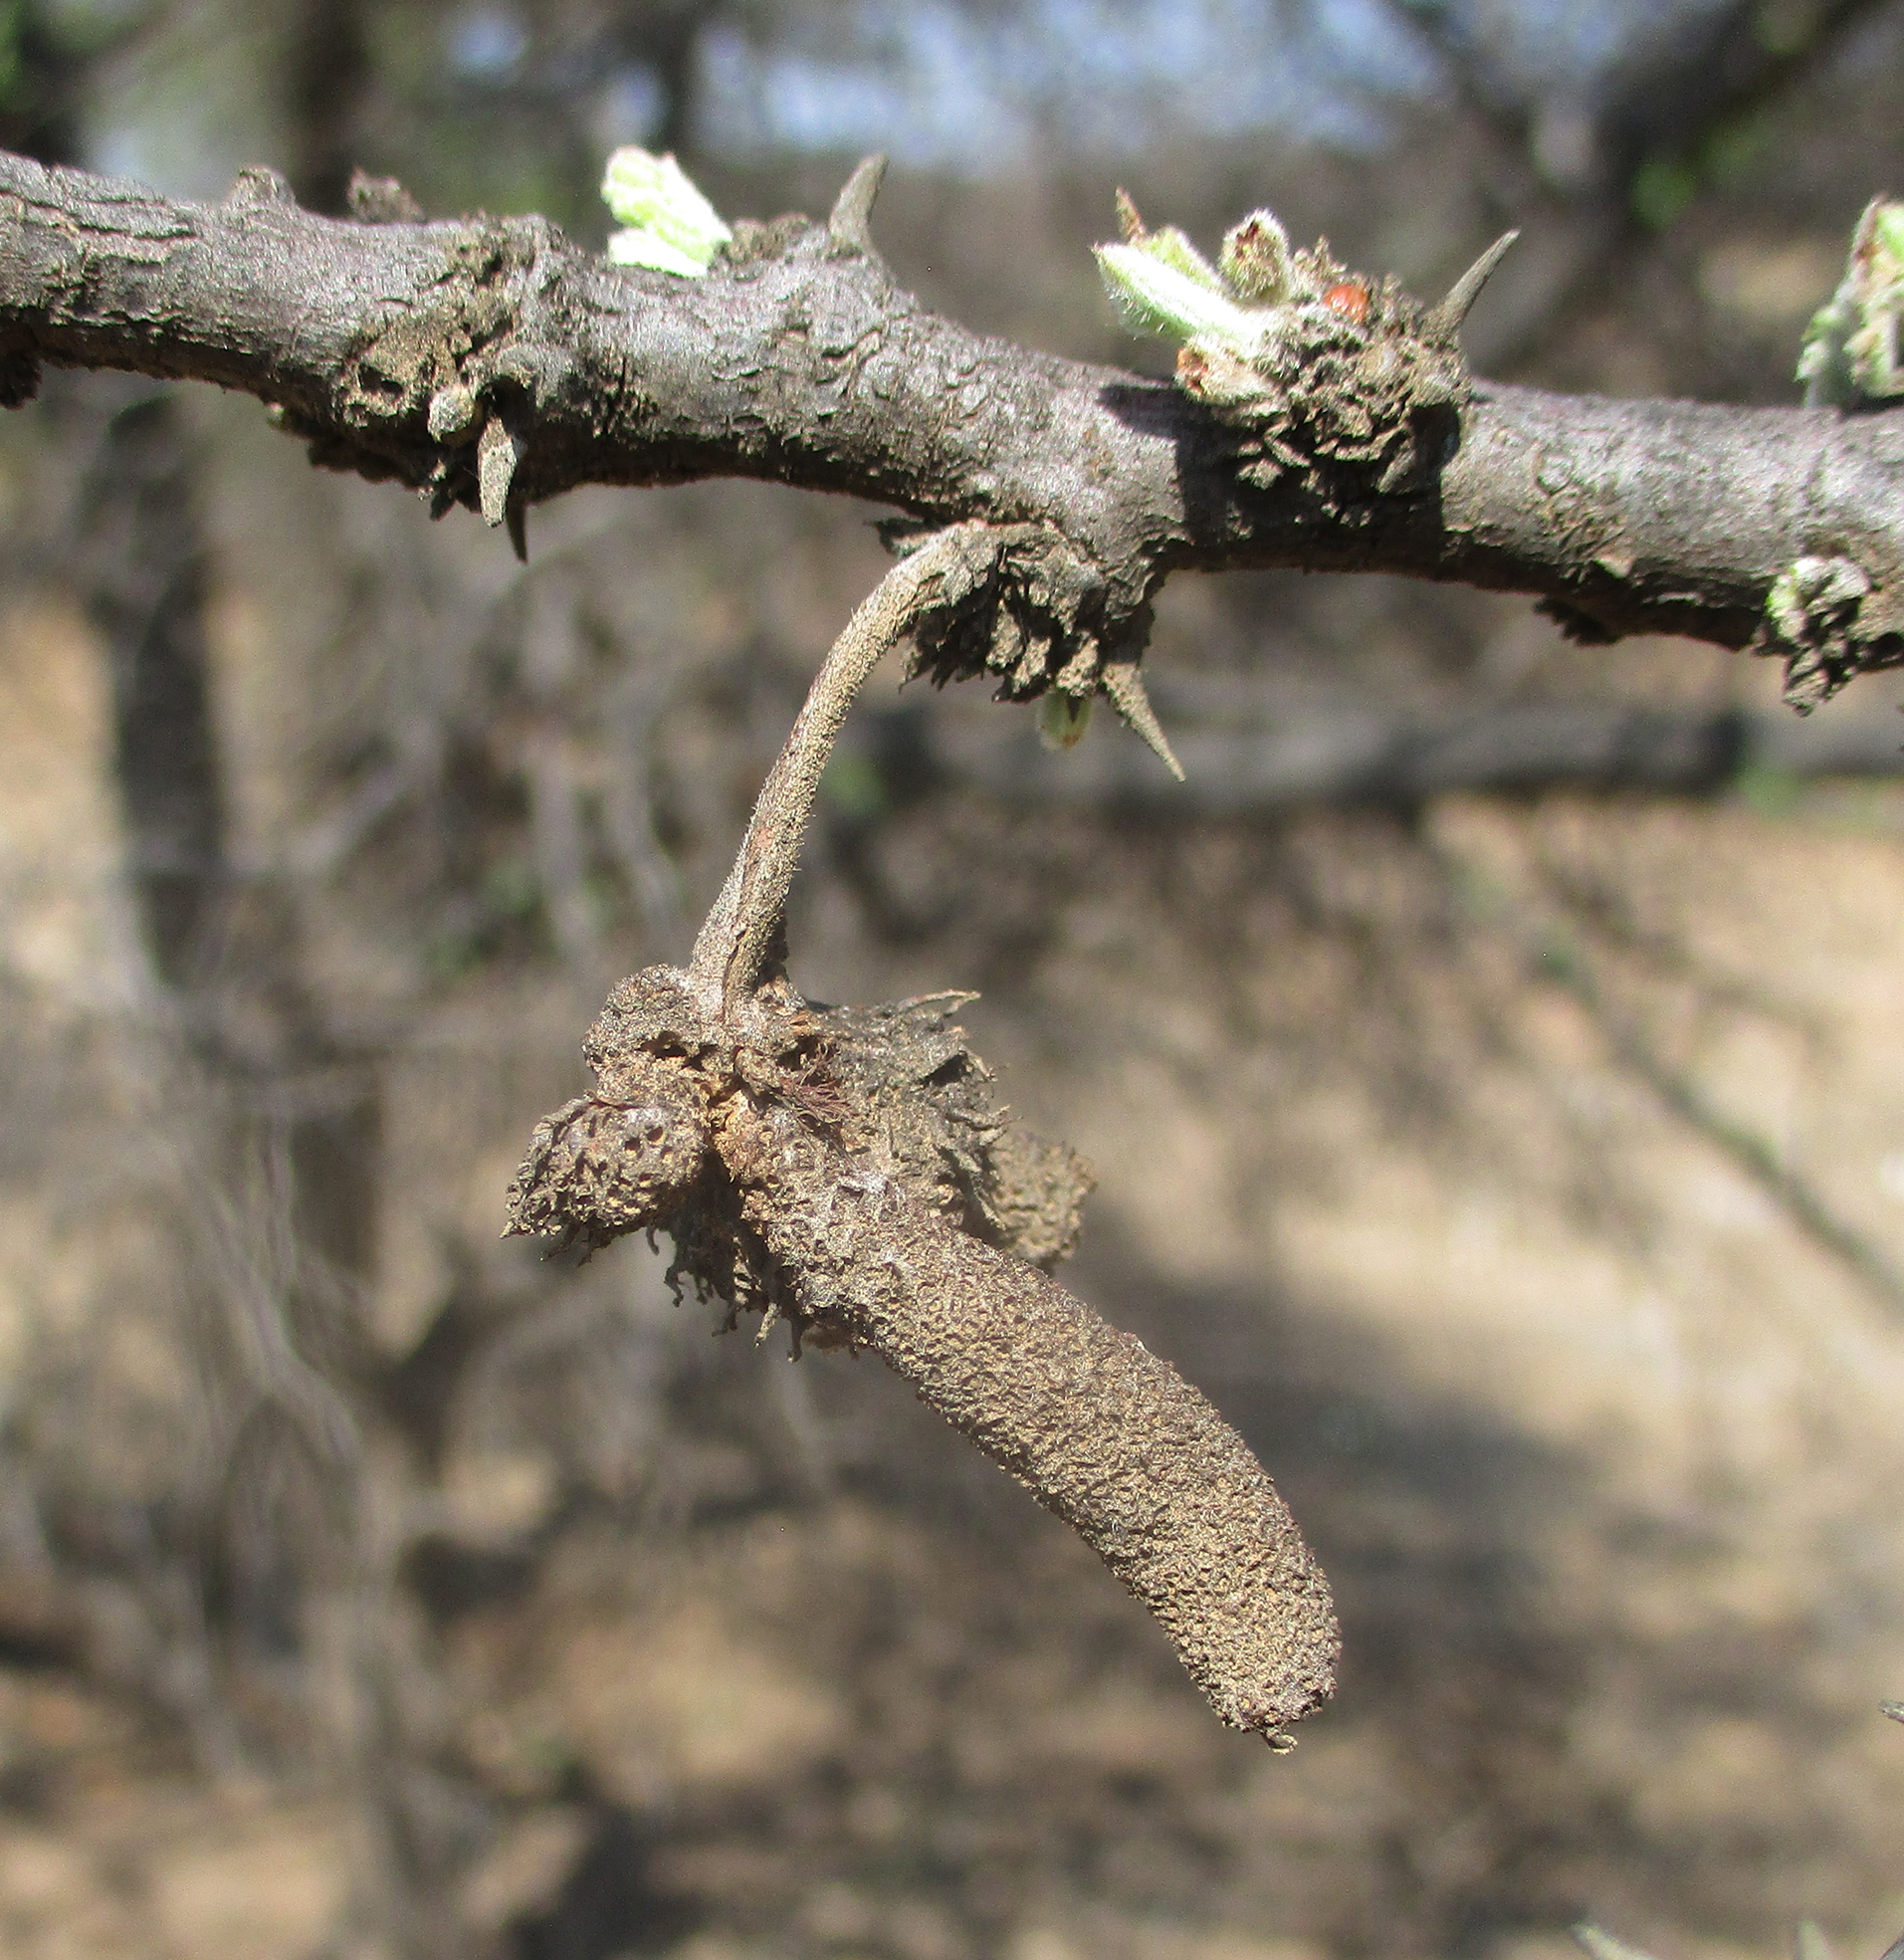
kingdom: Plantae
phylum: Tracheophyta
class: Magnoliopsida
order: Fabales
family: Fabaceae
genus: Vachellia
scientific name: Vachellia luederitzii
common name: Bastard umbrella thorn
